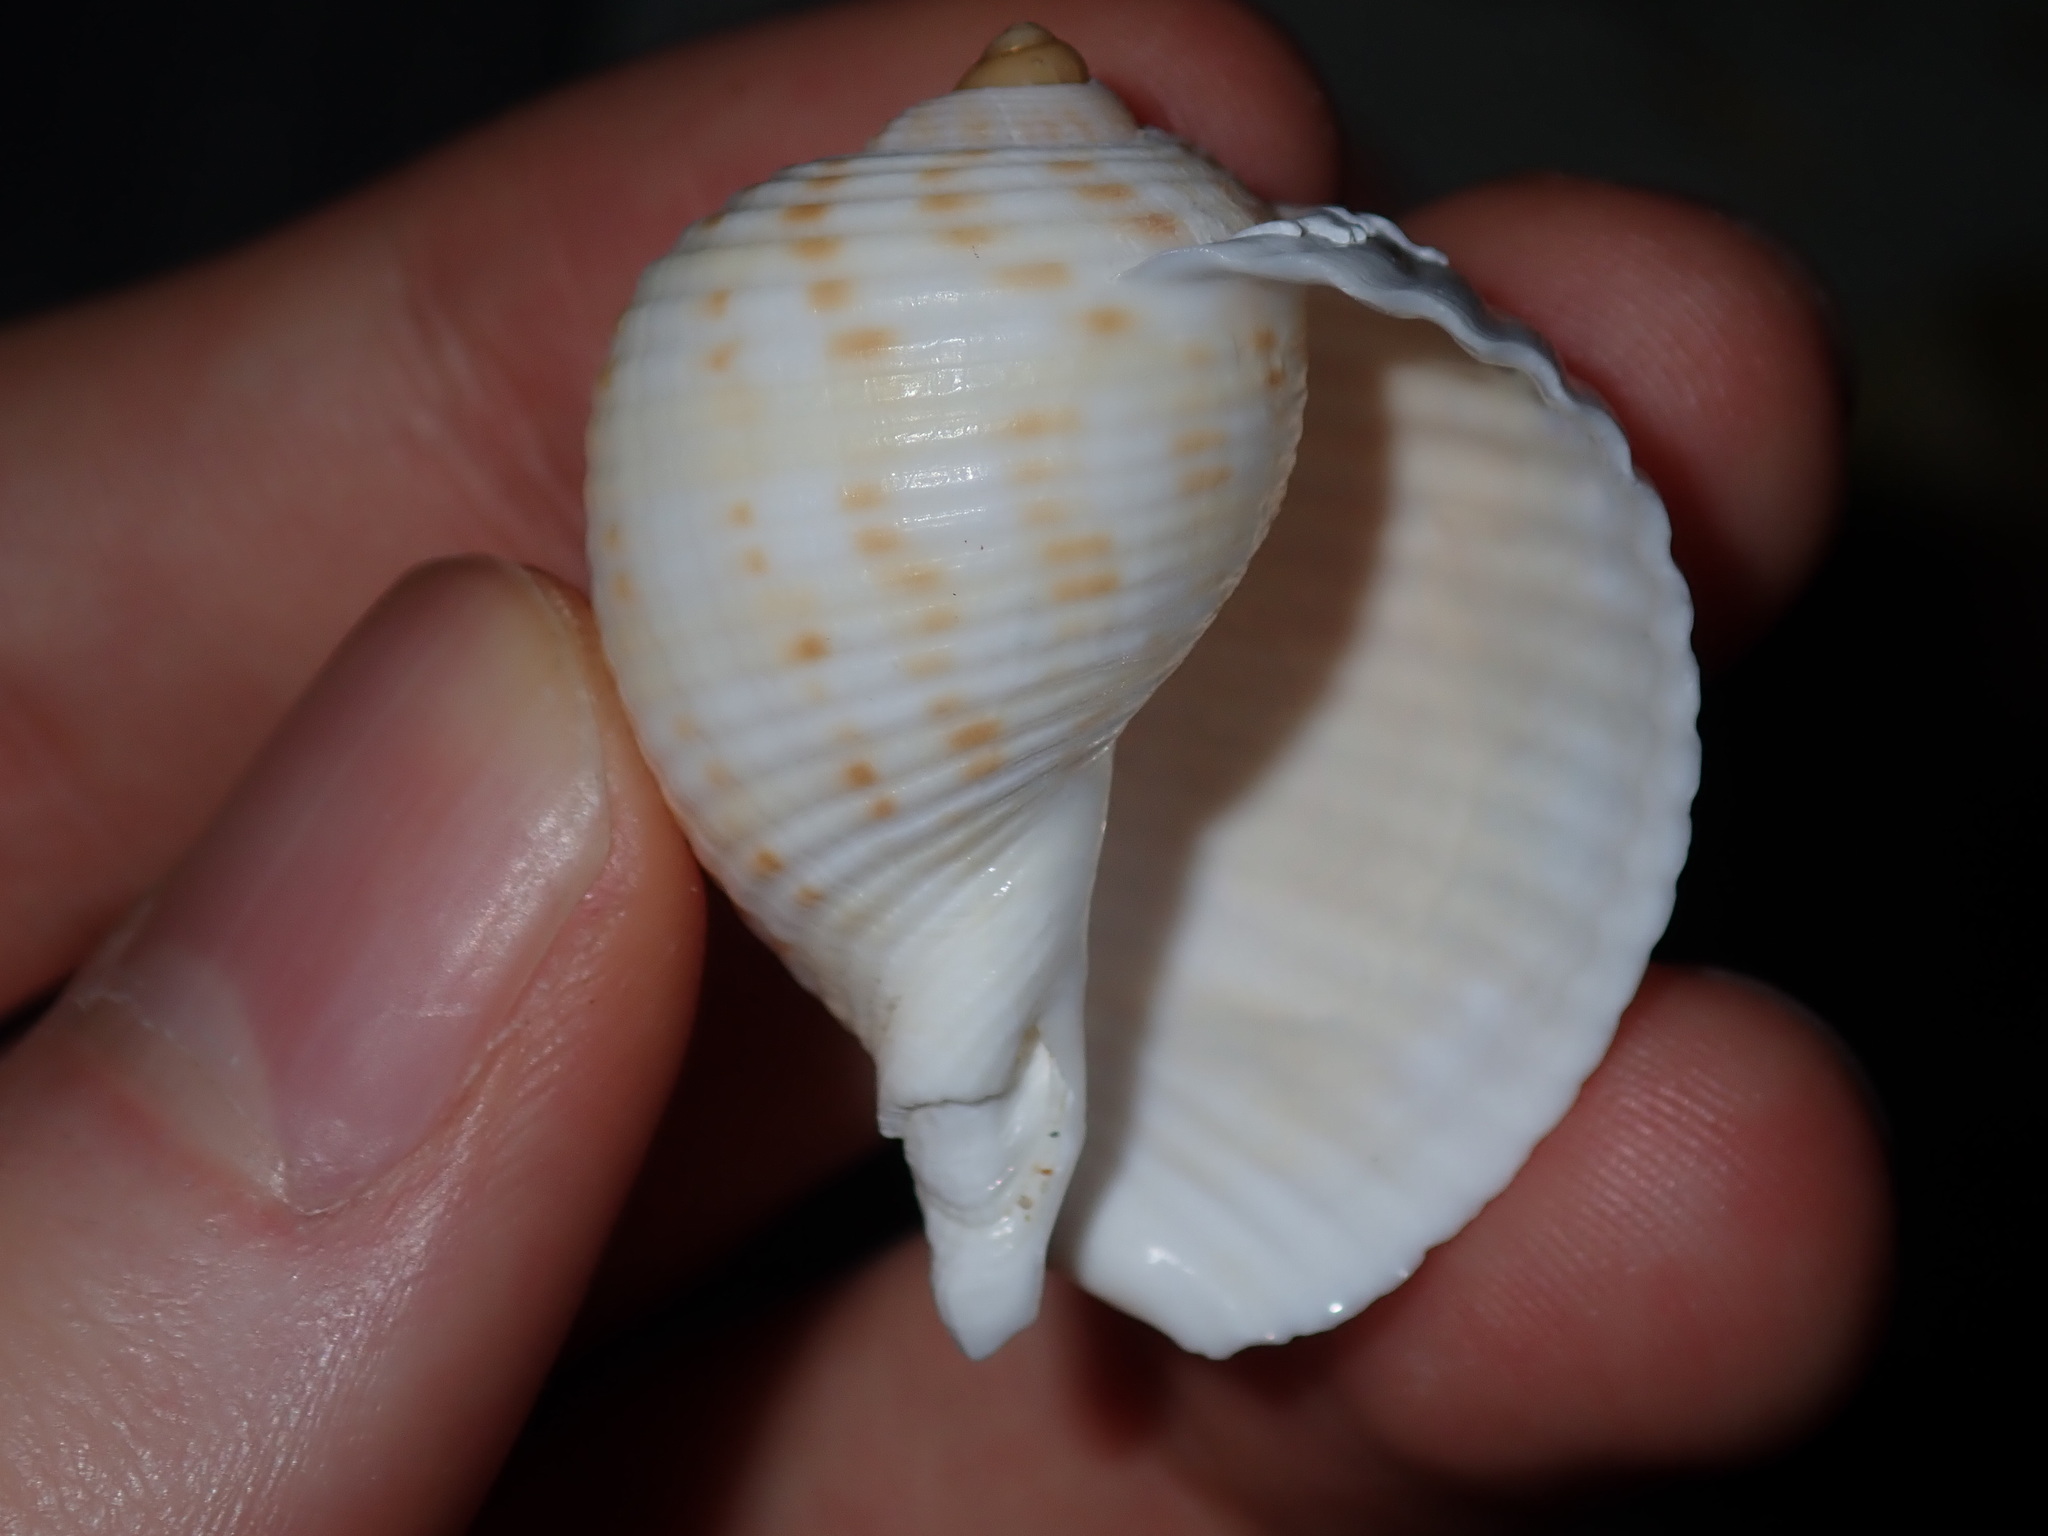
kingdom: Animalia
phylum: Mollusca
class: Gastropoda
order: Littorinimorpha
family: Tonnidae
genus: Tonna
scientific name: Tonna tankervillii
